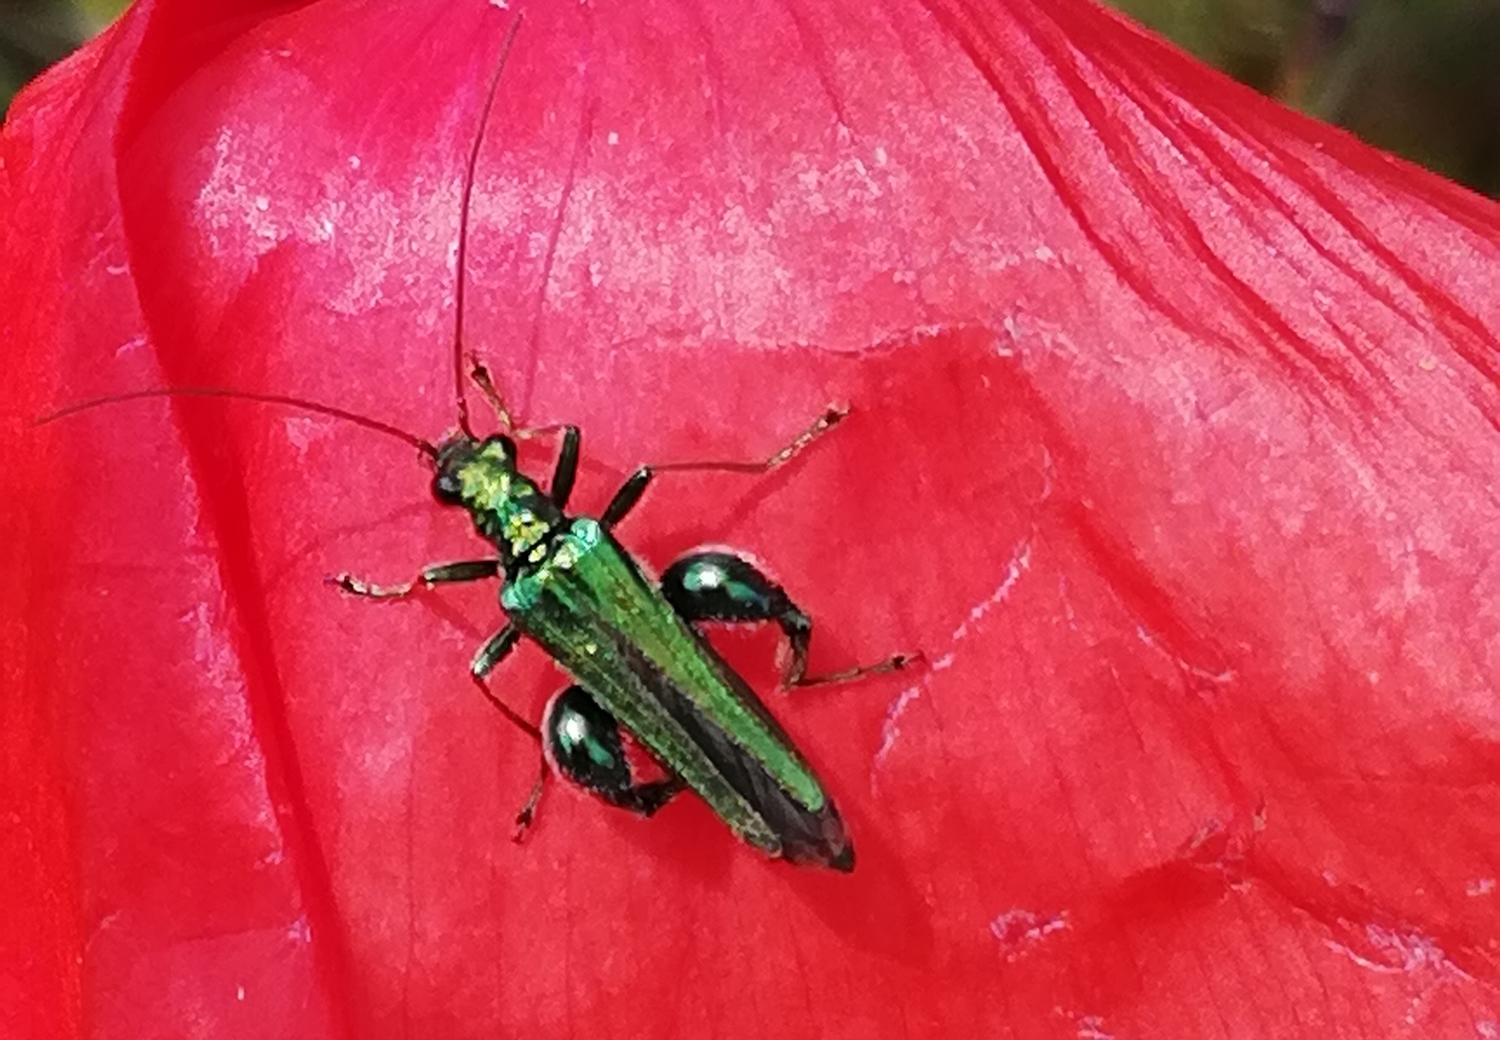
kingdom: Animalia
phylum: Arthropoda
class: Insecta
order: Coleoptera
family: Oedemeridae
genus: Oedemera
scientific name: Oedemera nobilis
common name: Swollen-thighed beetle
